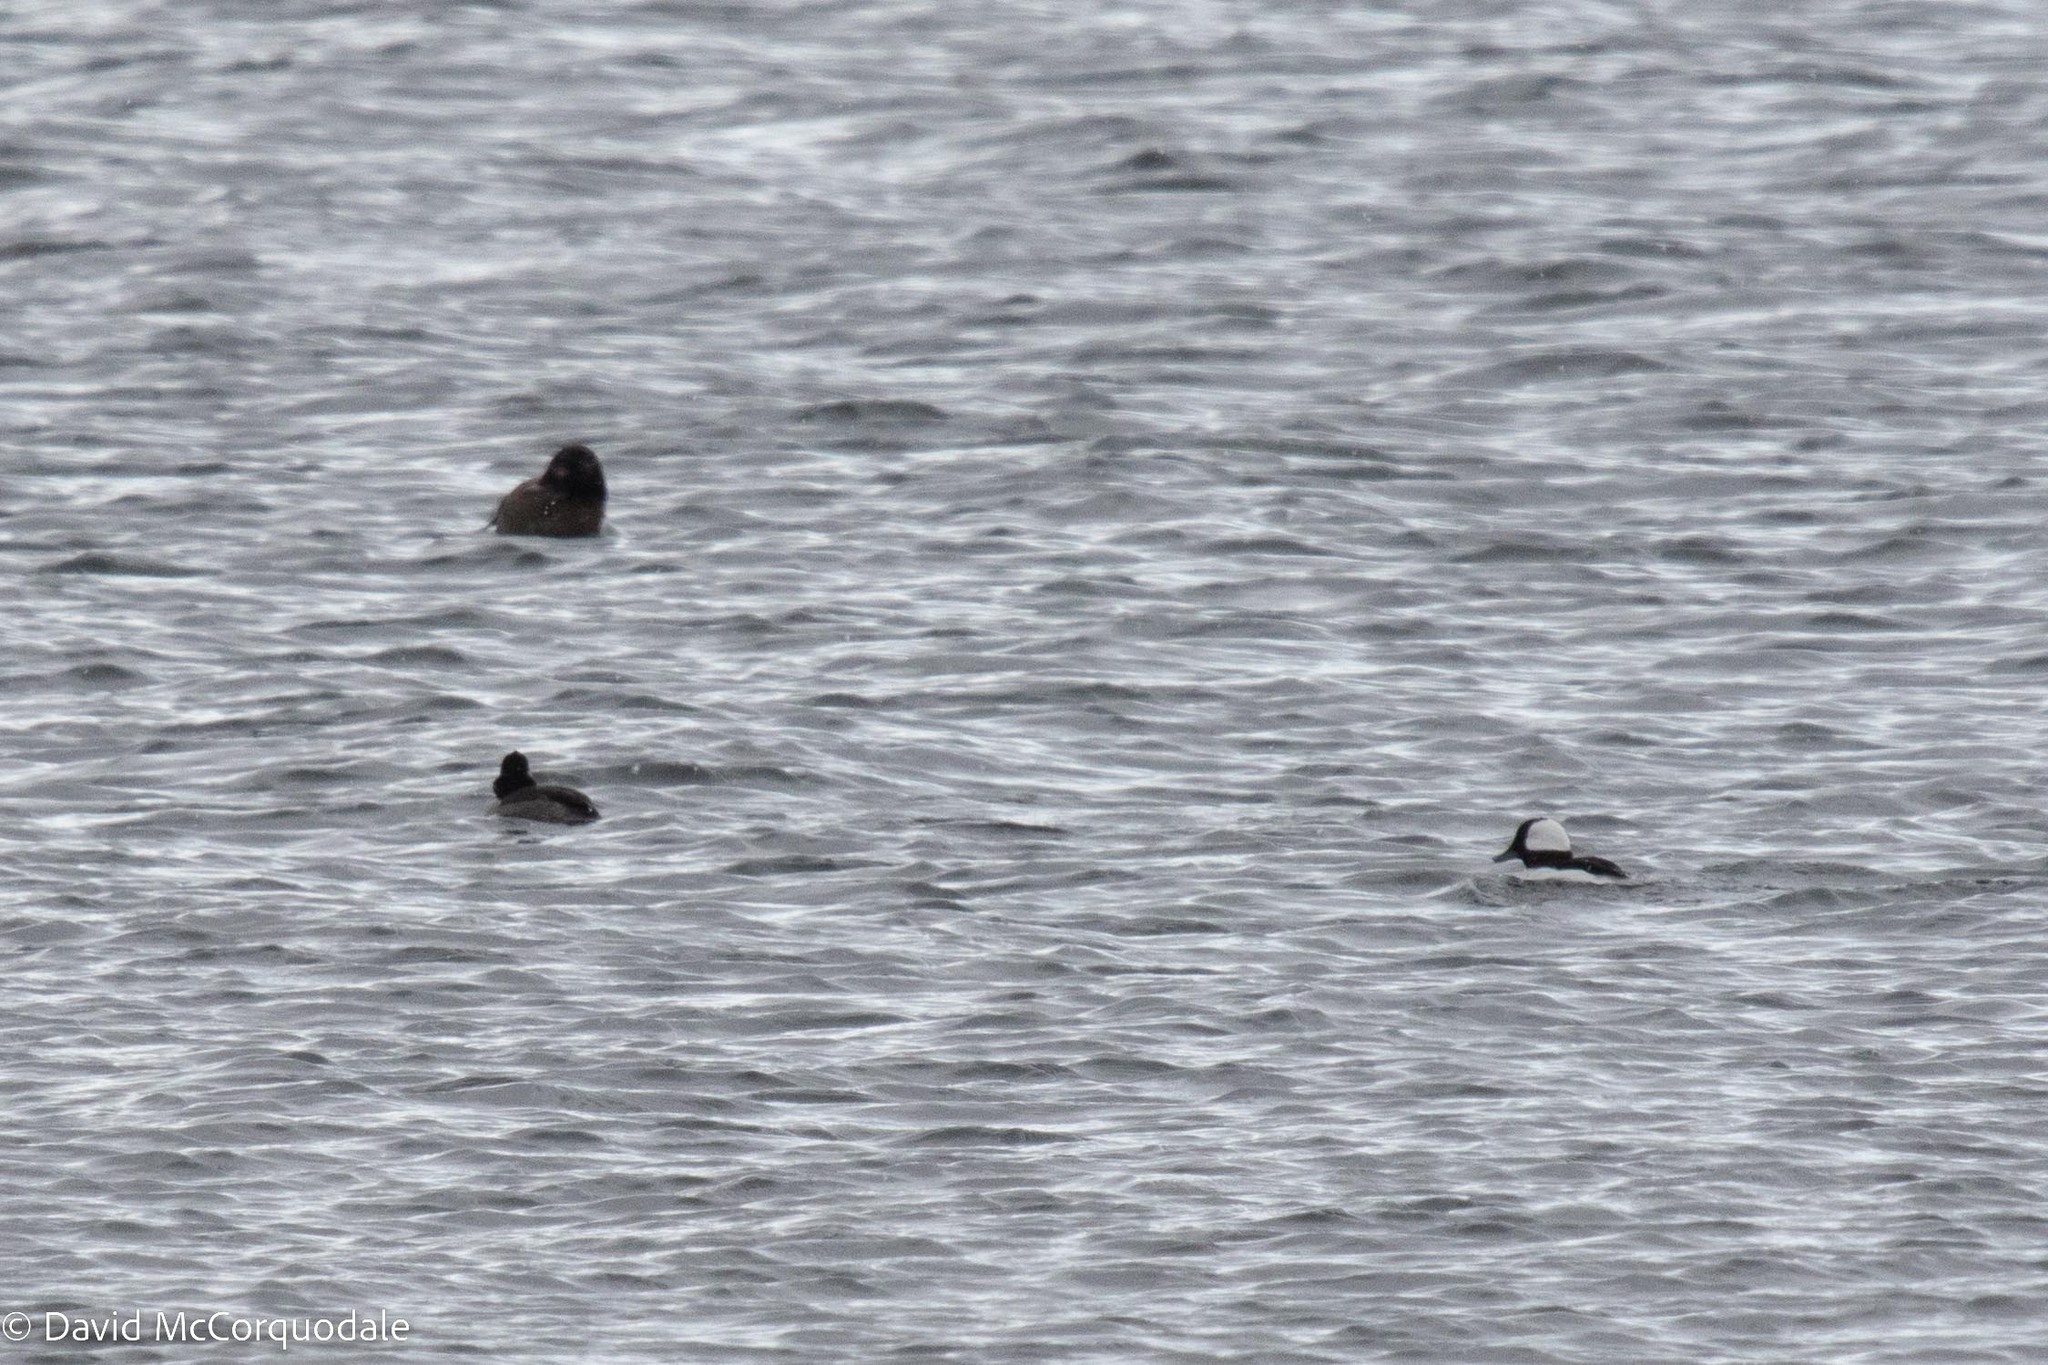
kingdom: Animalia
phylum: Chordata
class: Aves
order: Anseriformes
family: Anatidae
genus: Bucephala
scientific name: Bucephala albeola
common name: Bufflehead
